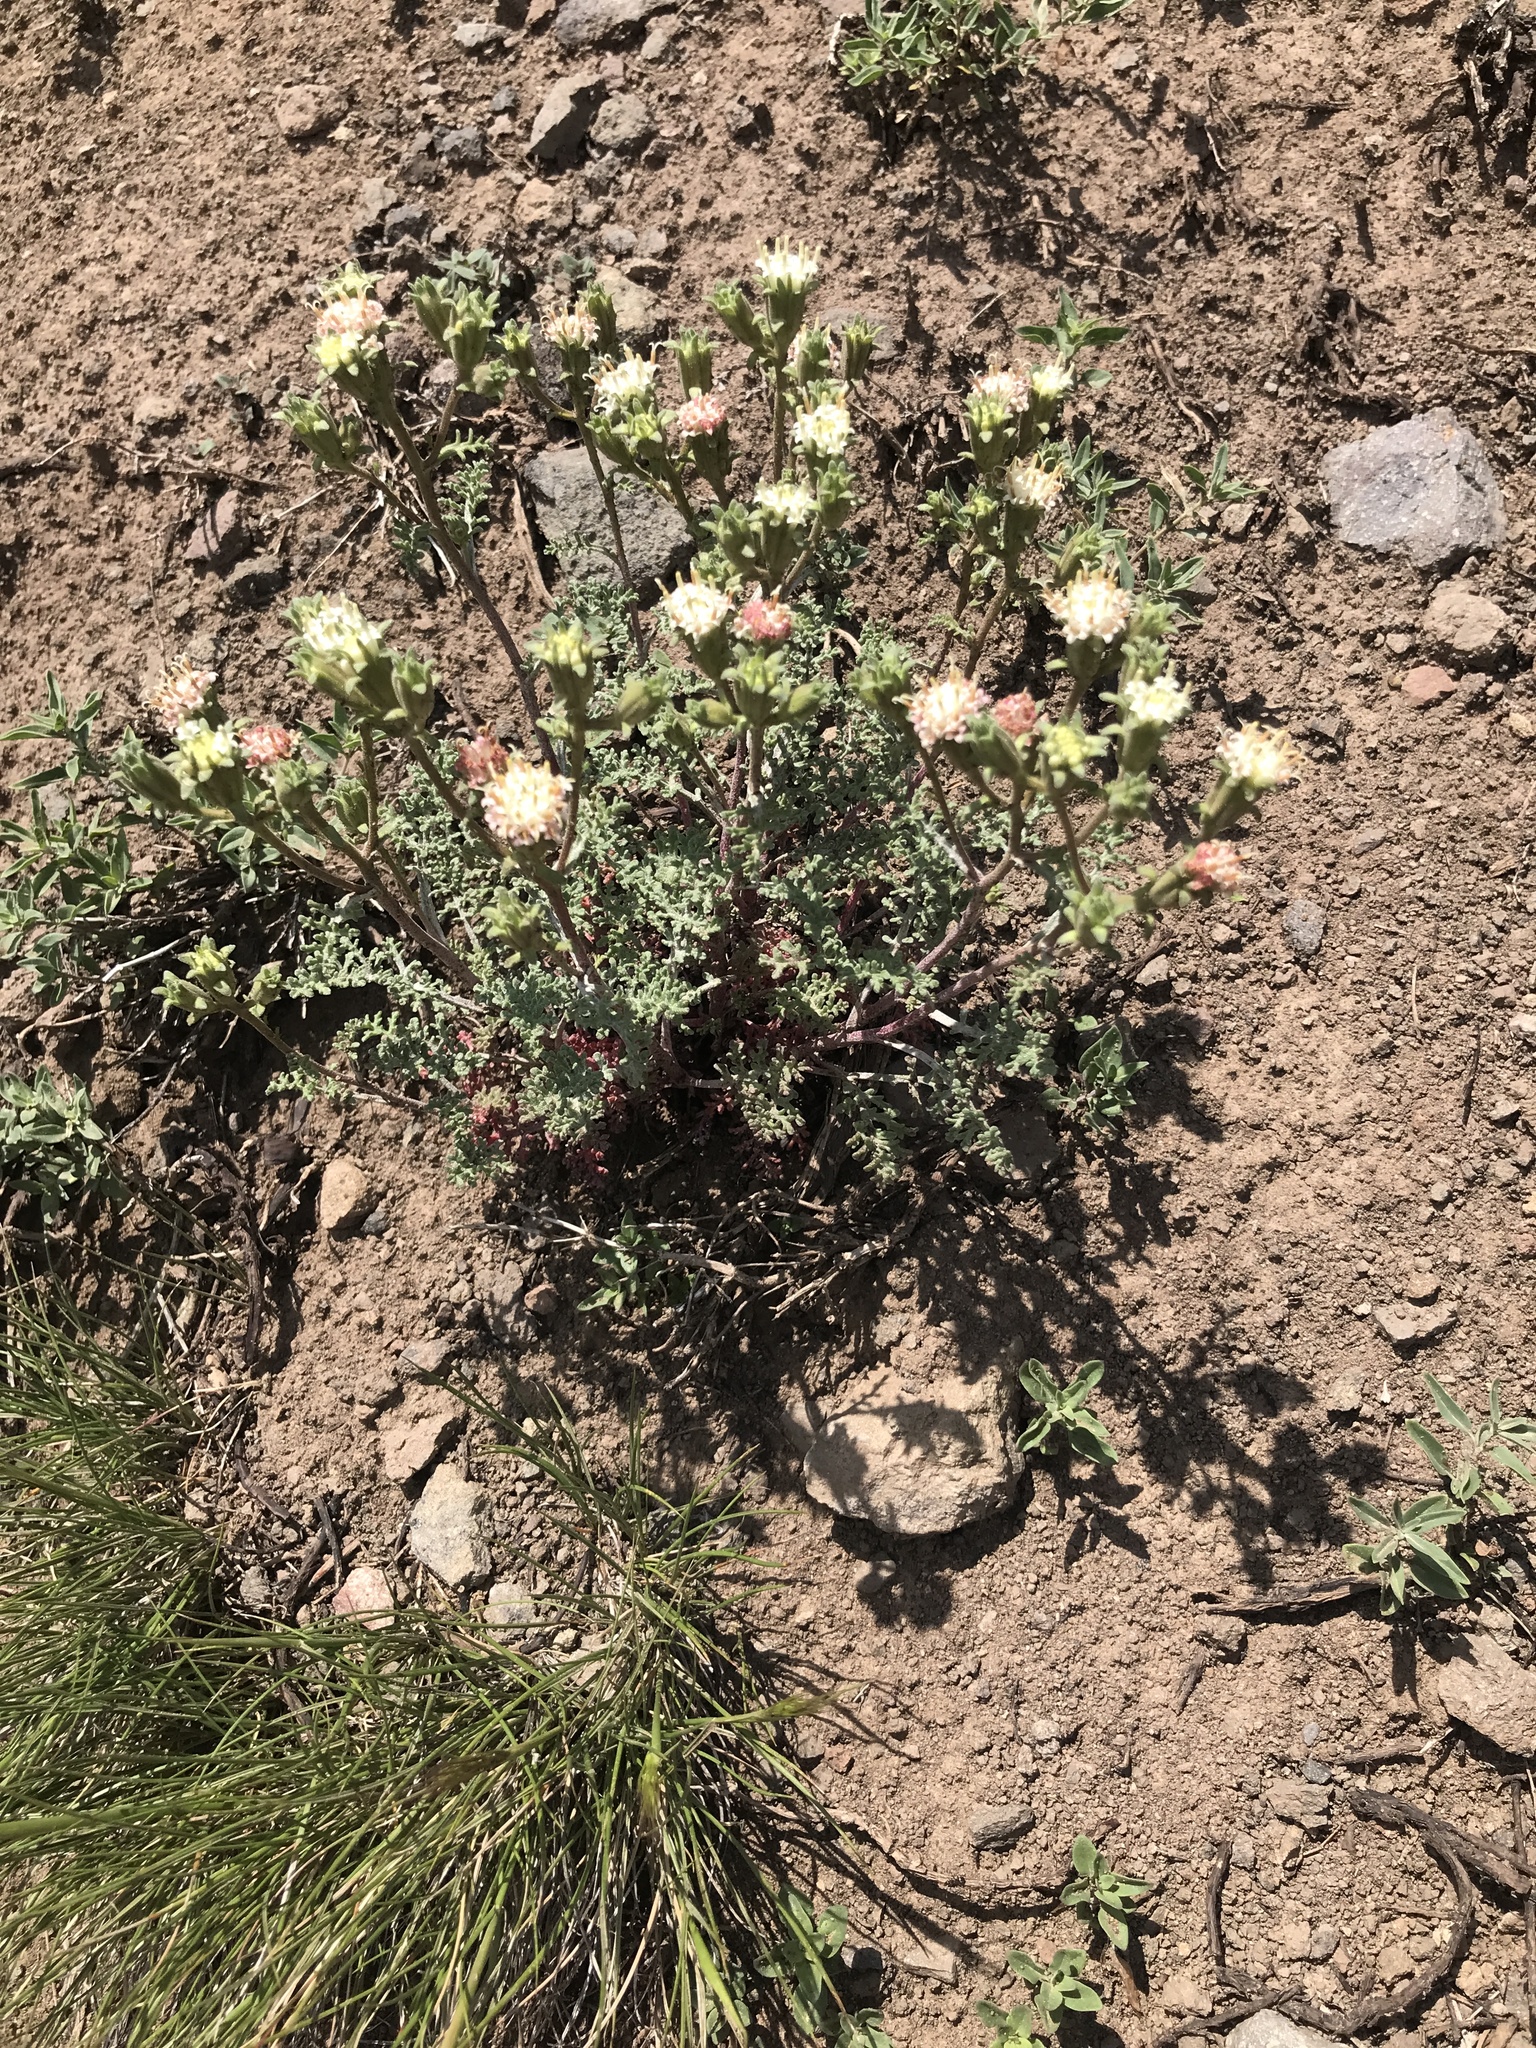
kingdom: Plantae
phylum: Tracheophyta
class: Magnoliopsida
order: Asterales
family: Asteraceae
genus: Chaenactis
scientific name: Chaenactis douglasii
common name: Hoary pincushion
